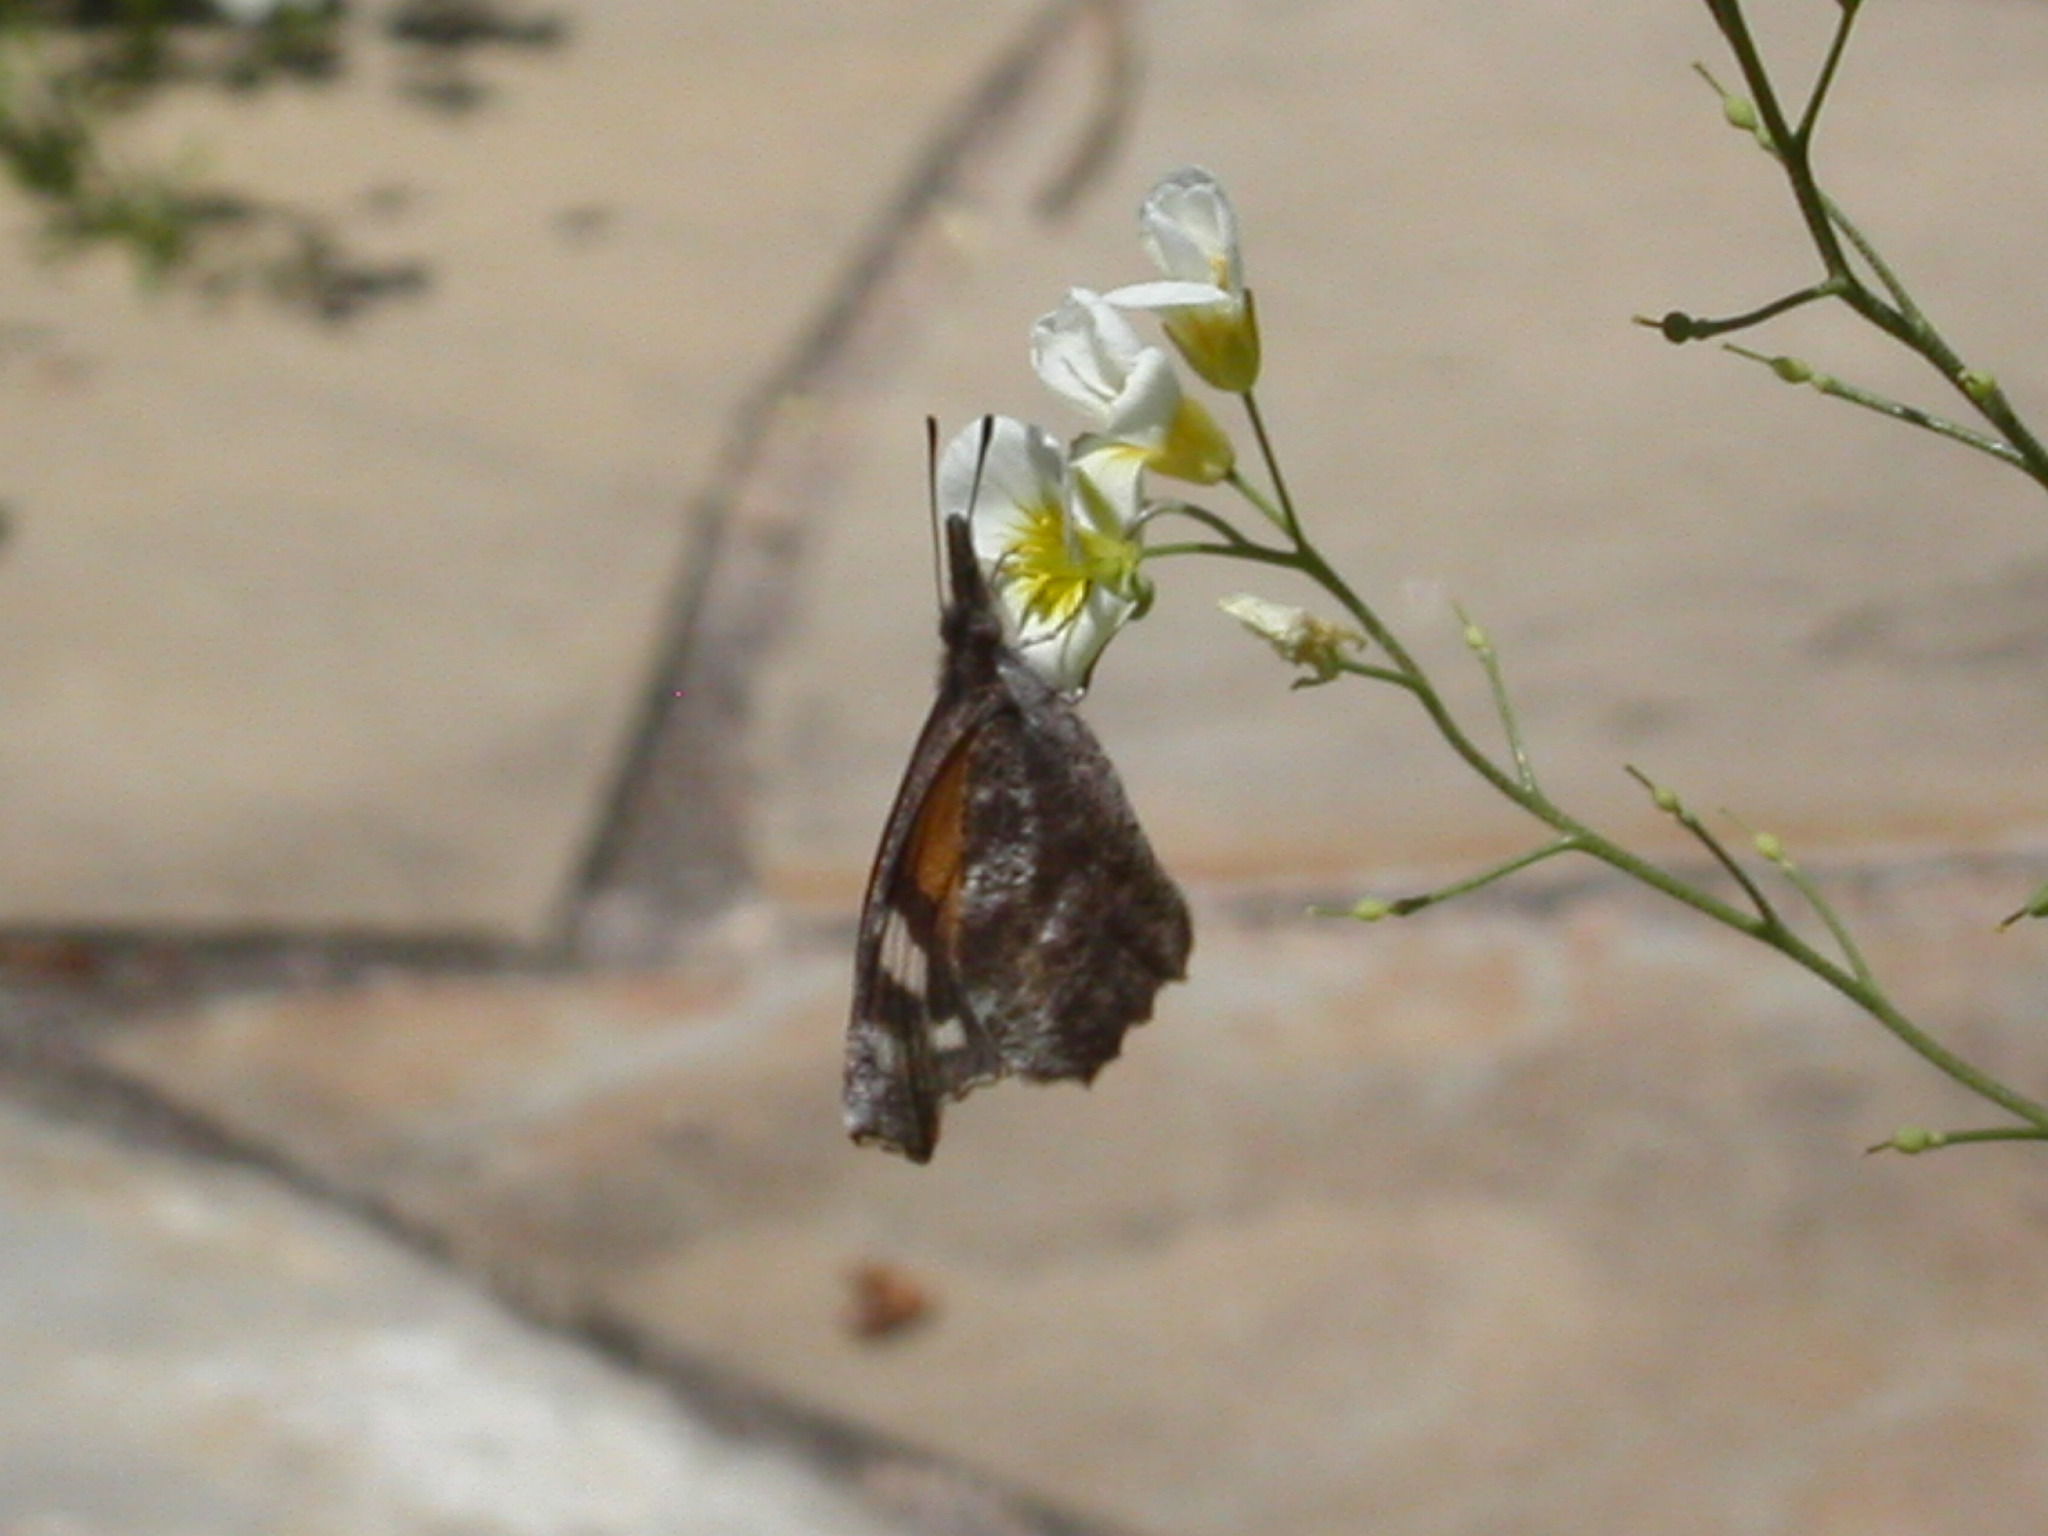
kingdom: Animalia
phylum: Arthropoda
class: Insecta
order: Lepidoptera
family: Nymphalidae
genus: Libytheana
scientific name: Libytheana carinenta
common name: American snout
